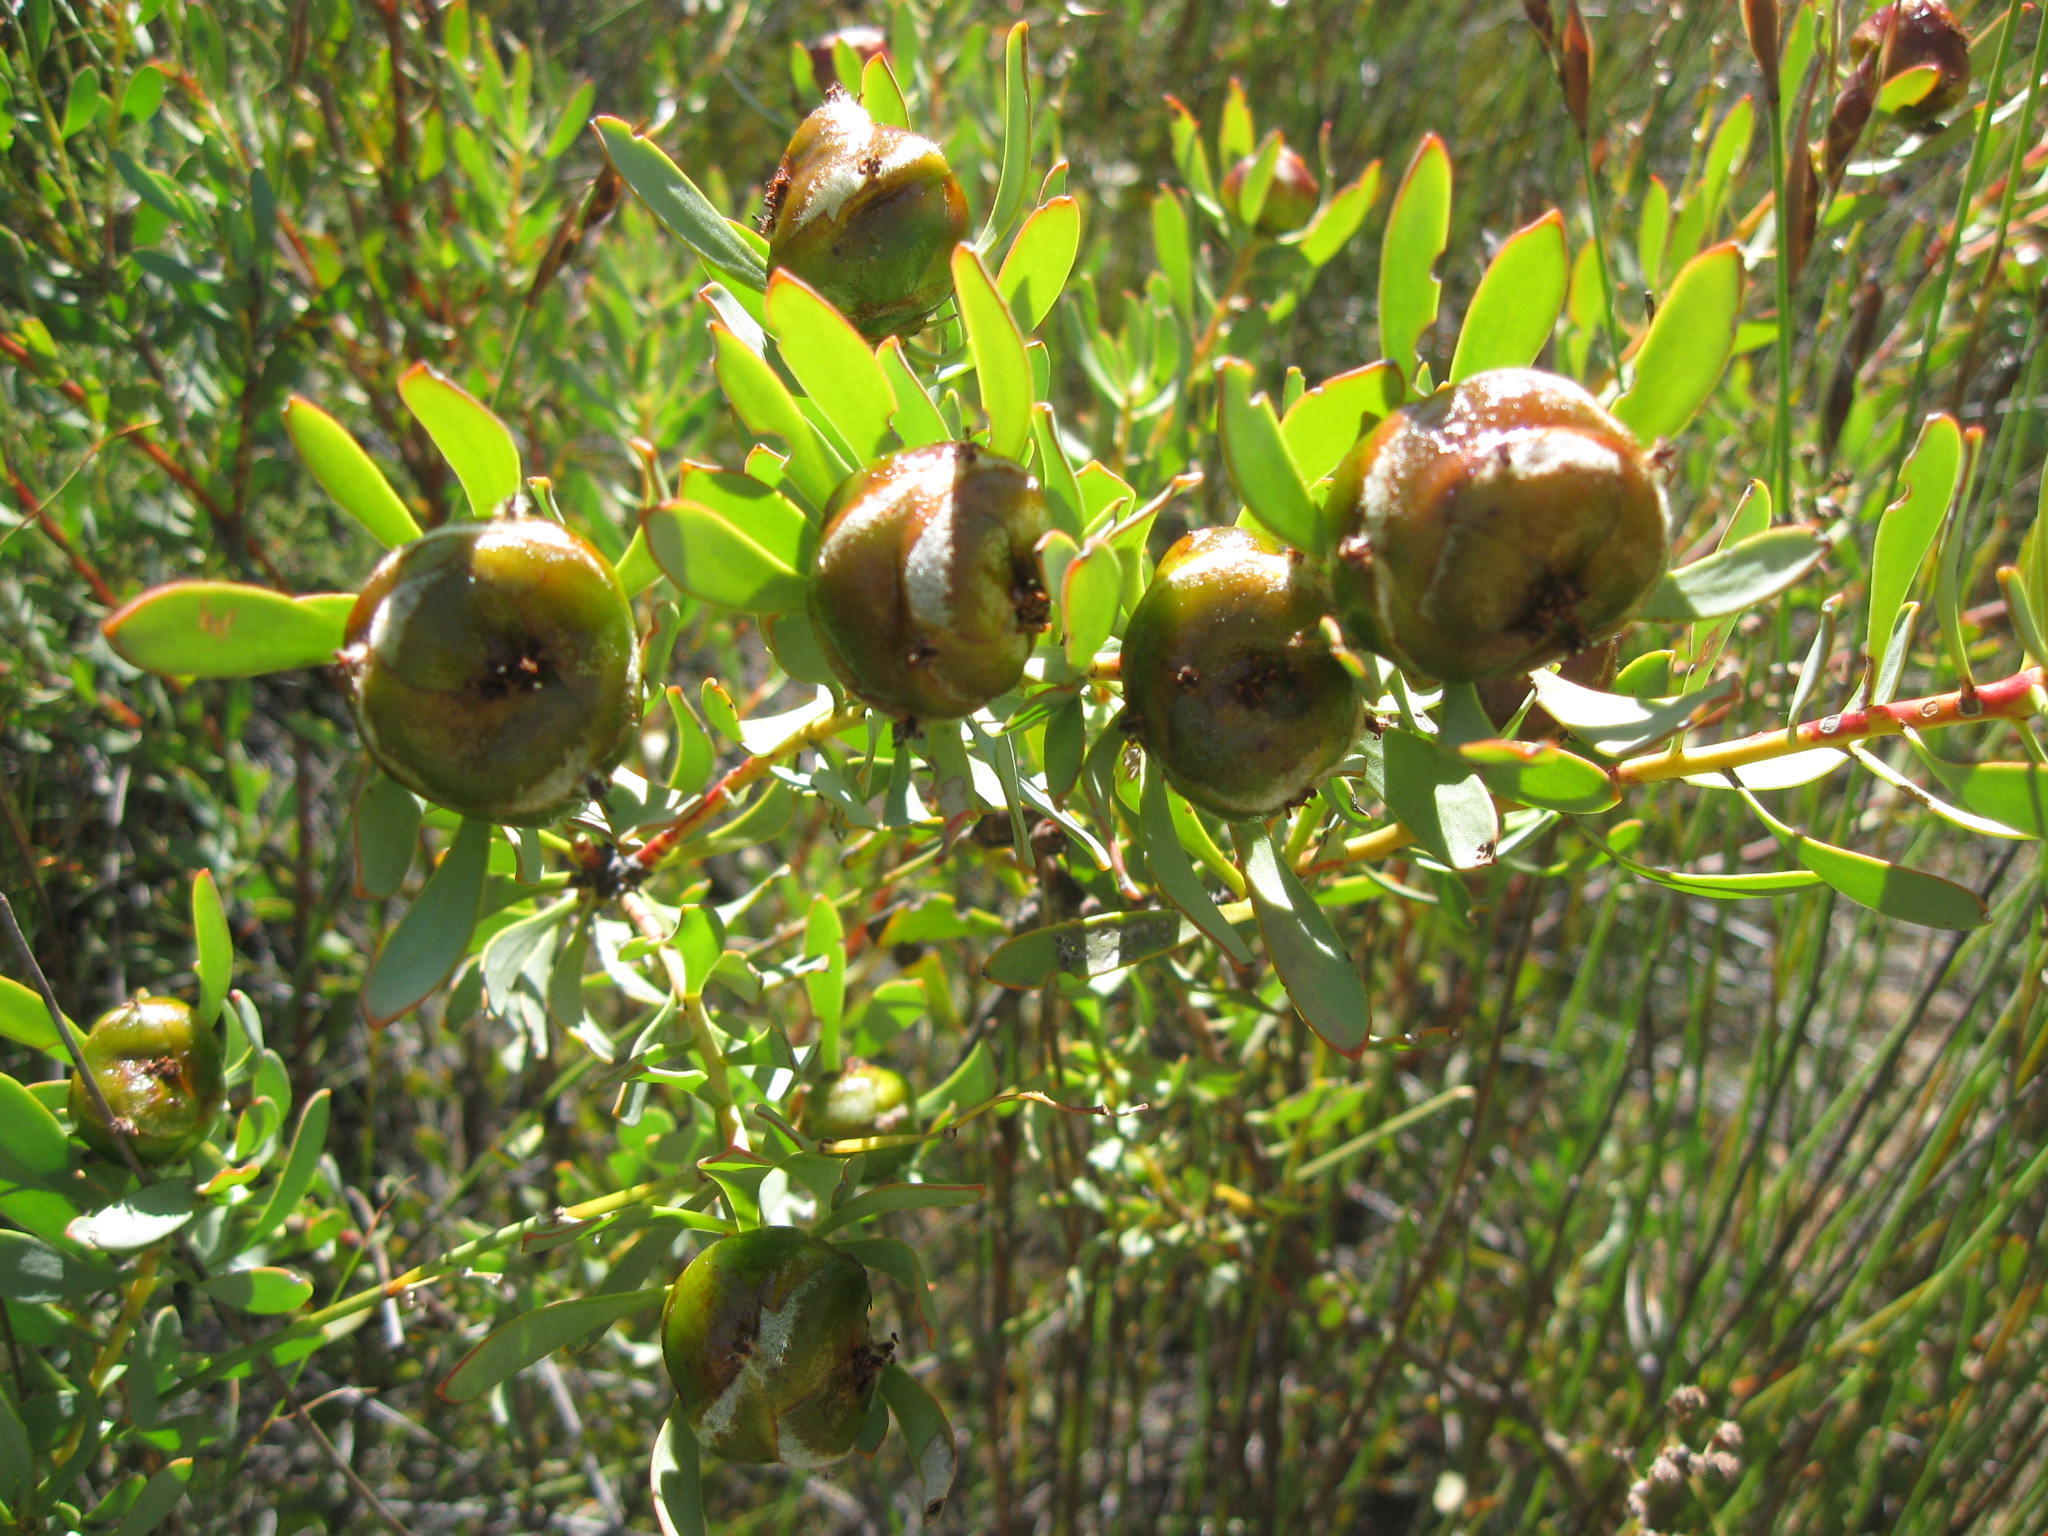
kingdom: Plantae
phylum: Tracheophyta
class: Magnoliopsida
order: Proteales
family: Proteaceae
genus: Leucadendron
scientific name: Leucadendron glaberrimum
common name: Common oily conebush
